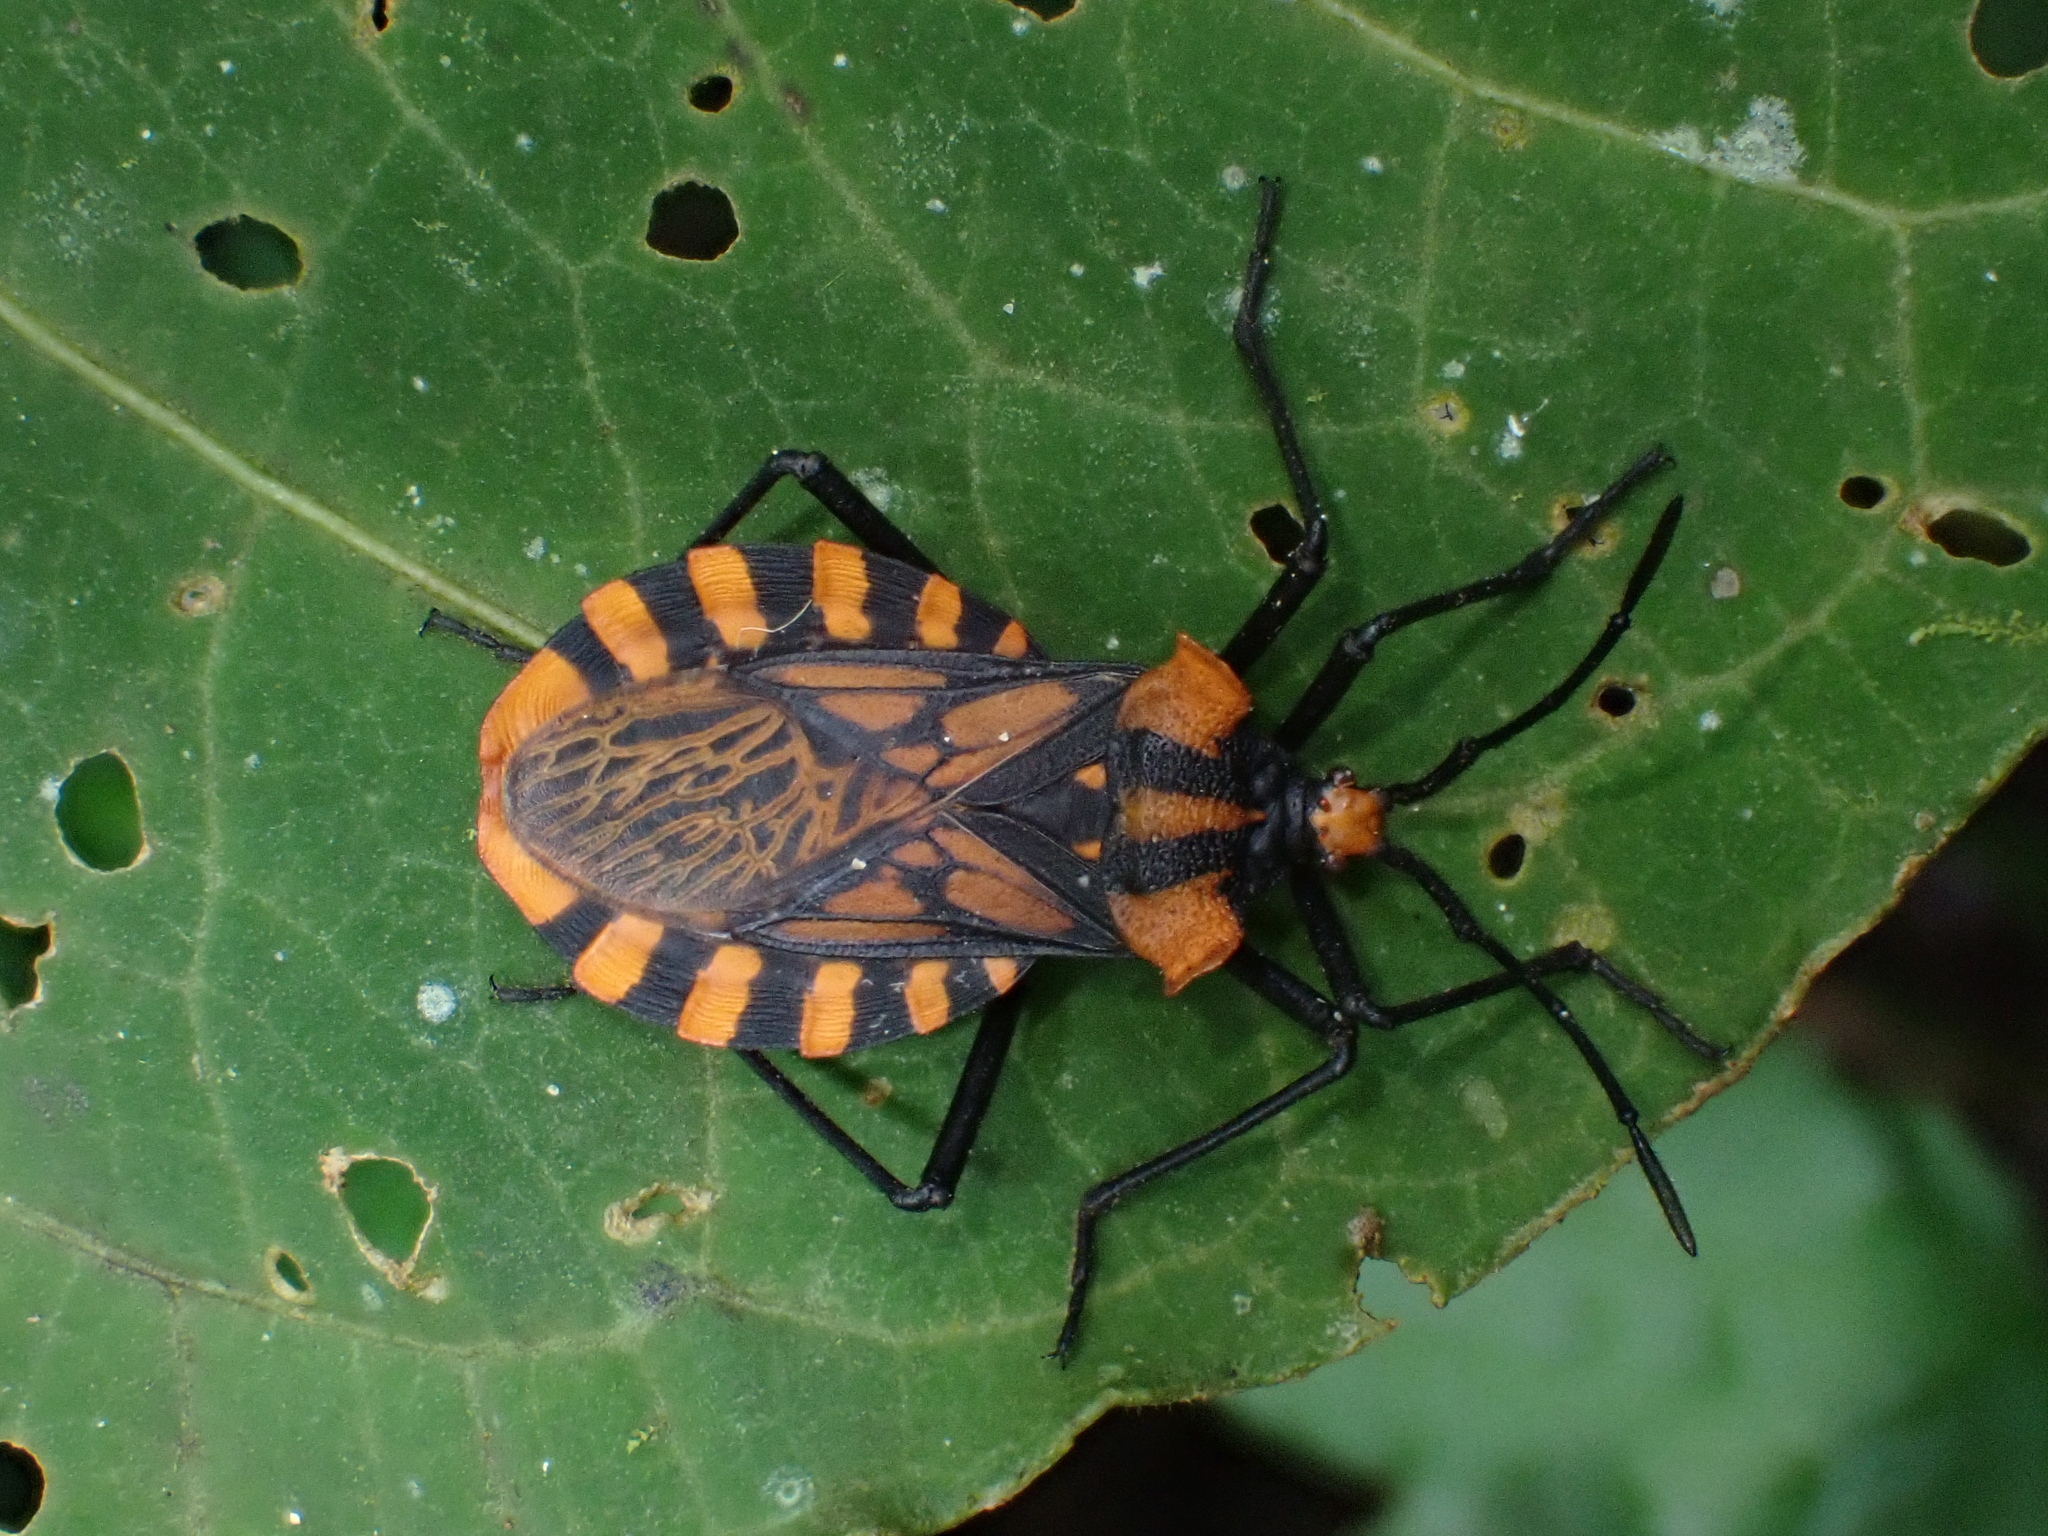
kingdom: Animalia
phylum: Arthropoda
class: Insecta
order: Hemiptera
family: Coreidae
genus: Spartocera
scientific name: Spartocera pantomima
